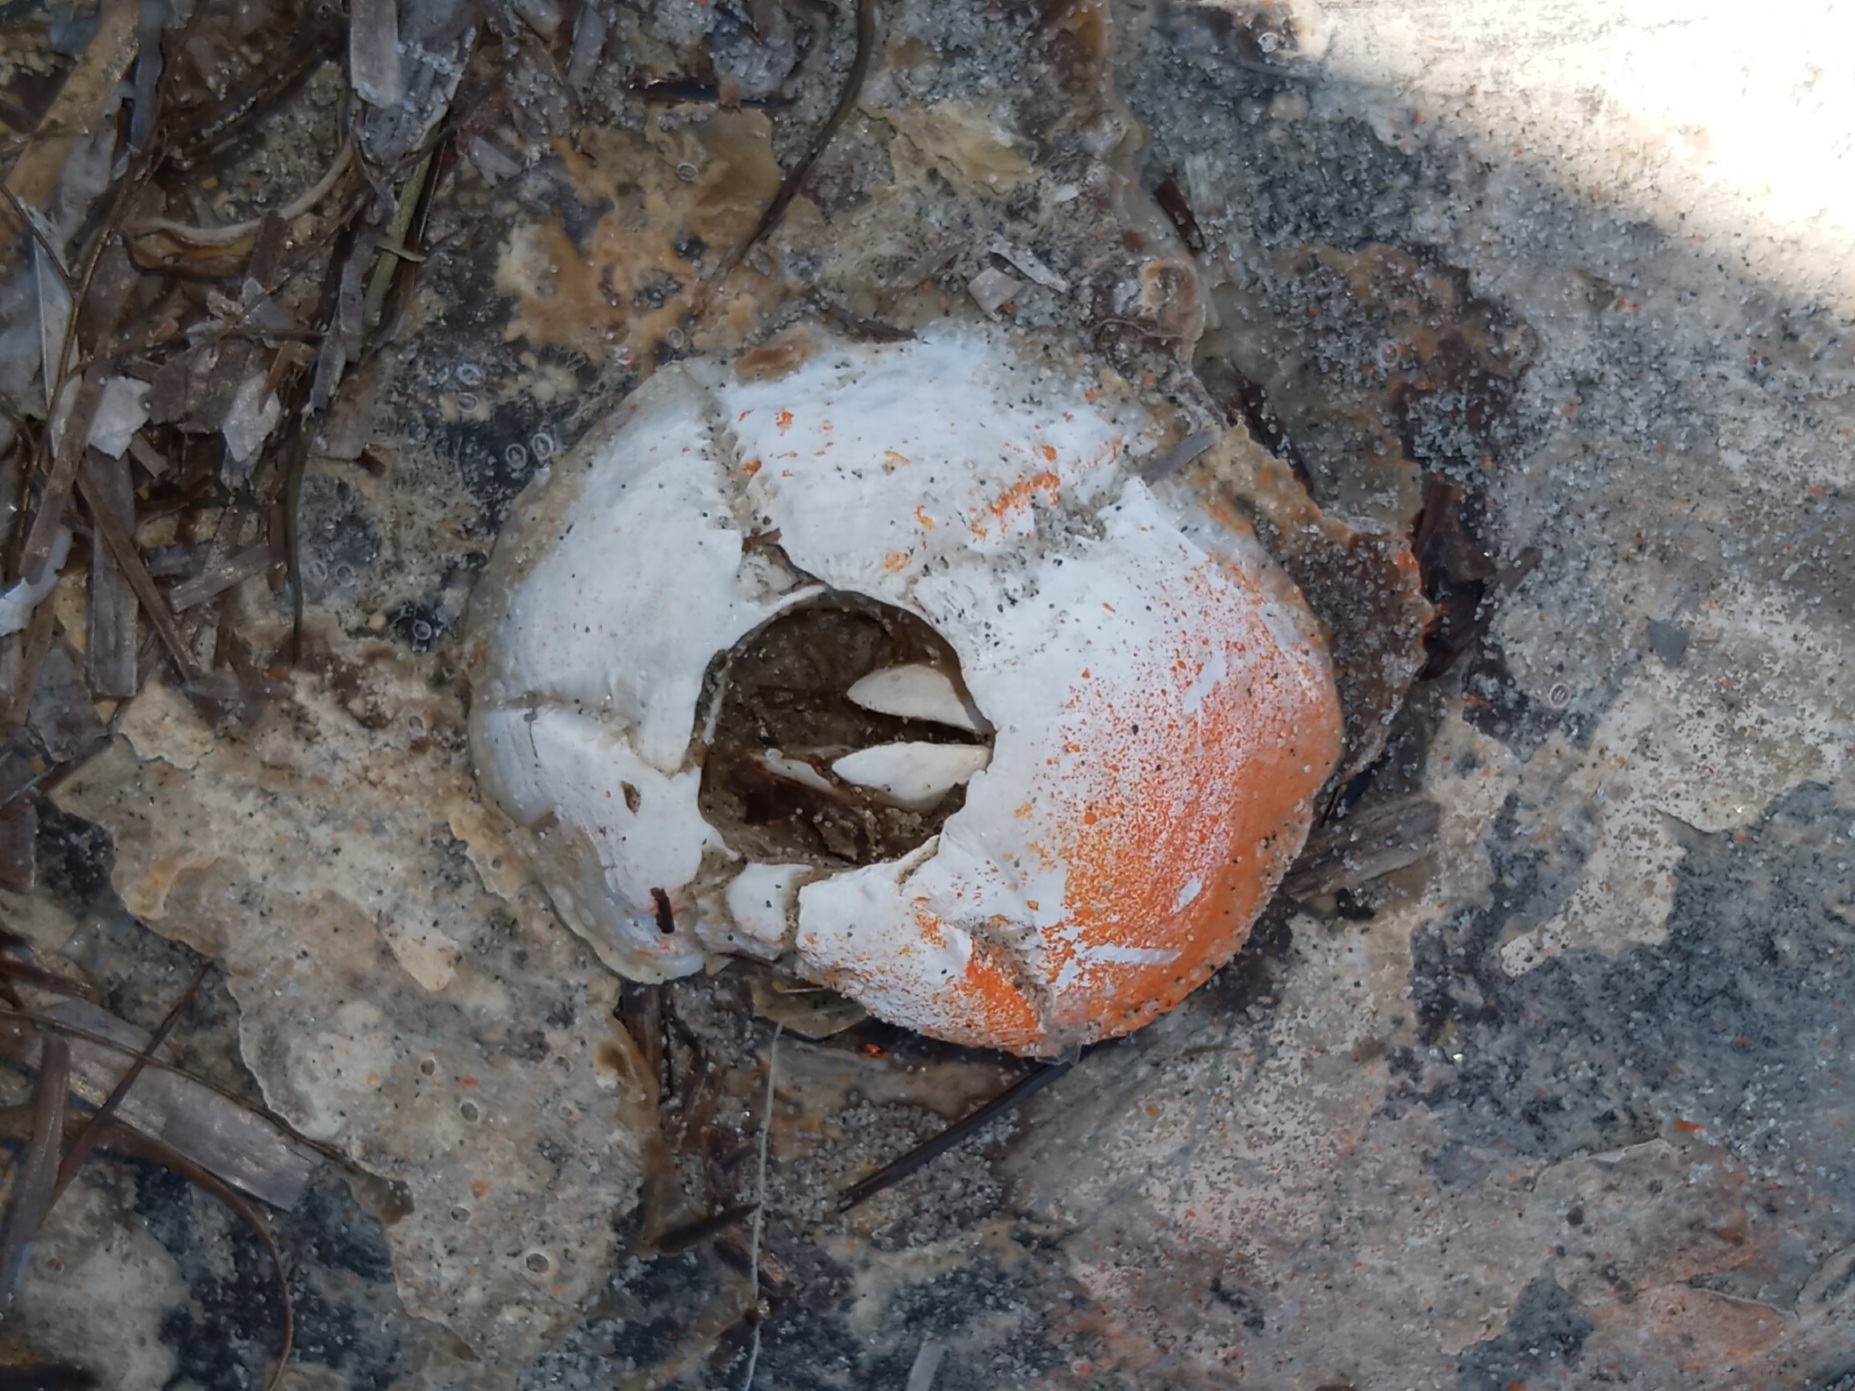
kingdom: Animalia
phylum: Arthropoda
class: Maxillopoda
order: Sessilia
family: Chelonibiidae
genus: Chelonibia
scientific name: Chelonibia testudinaria
